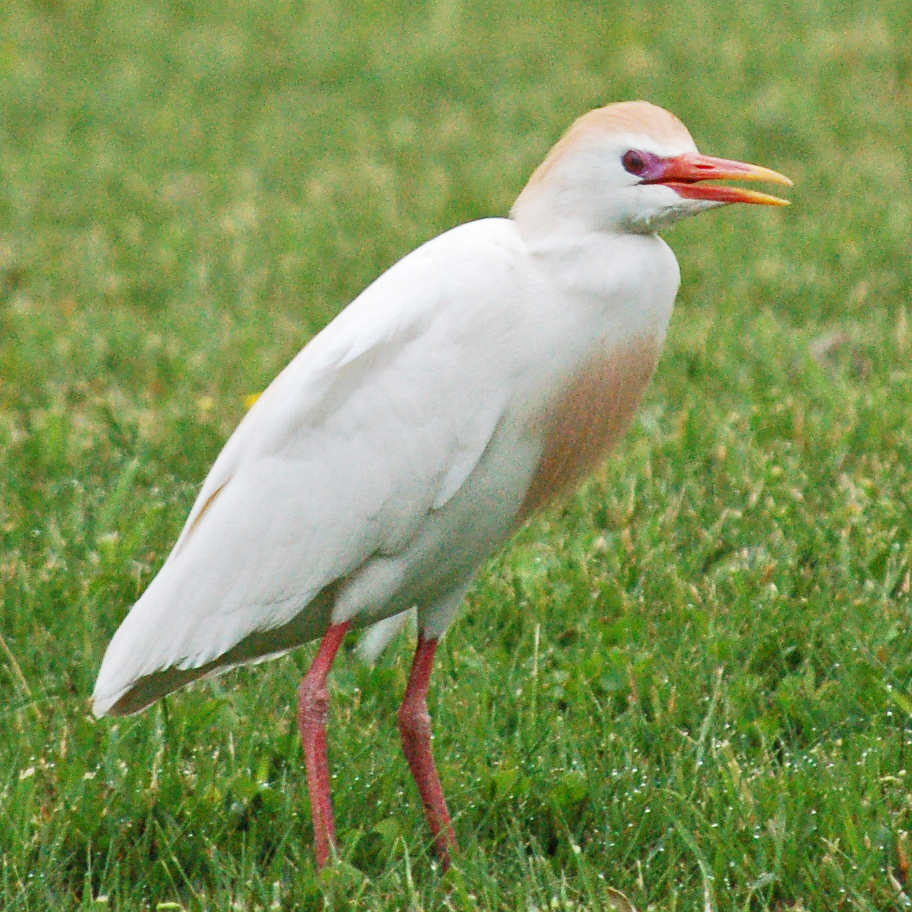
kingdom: Animalia
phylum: Chordata
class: Aves
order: Pelecaniformes
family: Ardeidae
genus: Bubulcus
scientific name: Bubulcus ibis
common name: Cattle egret
